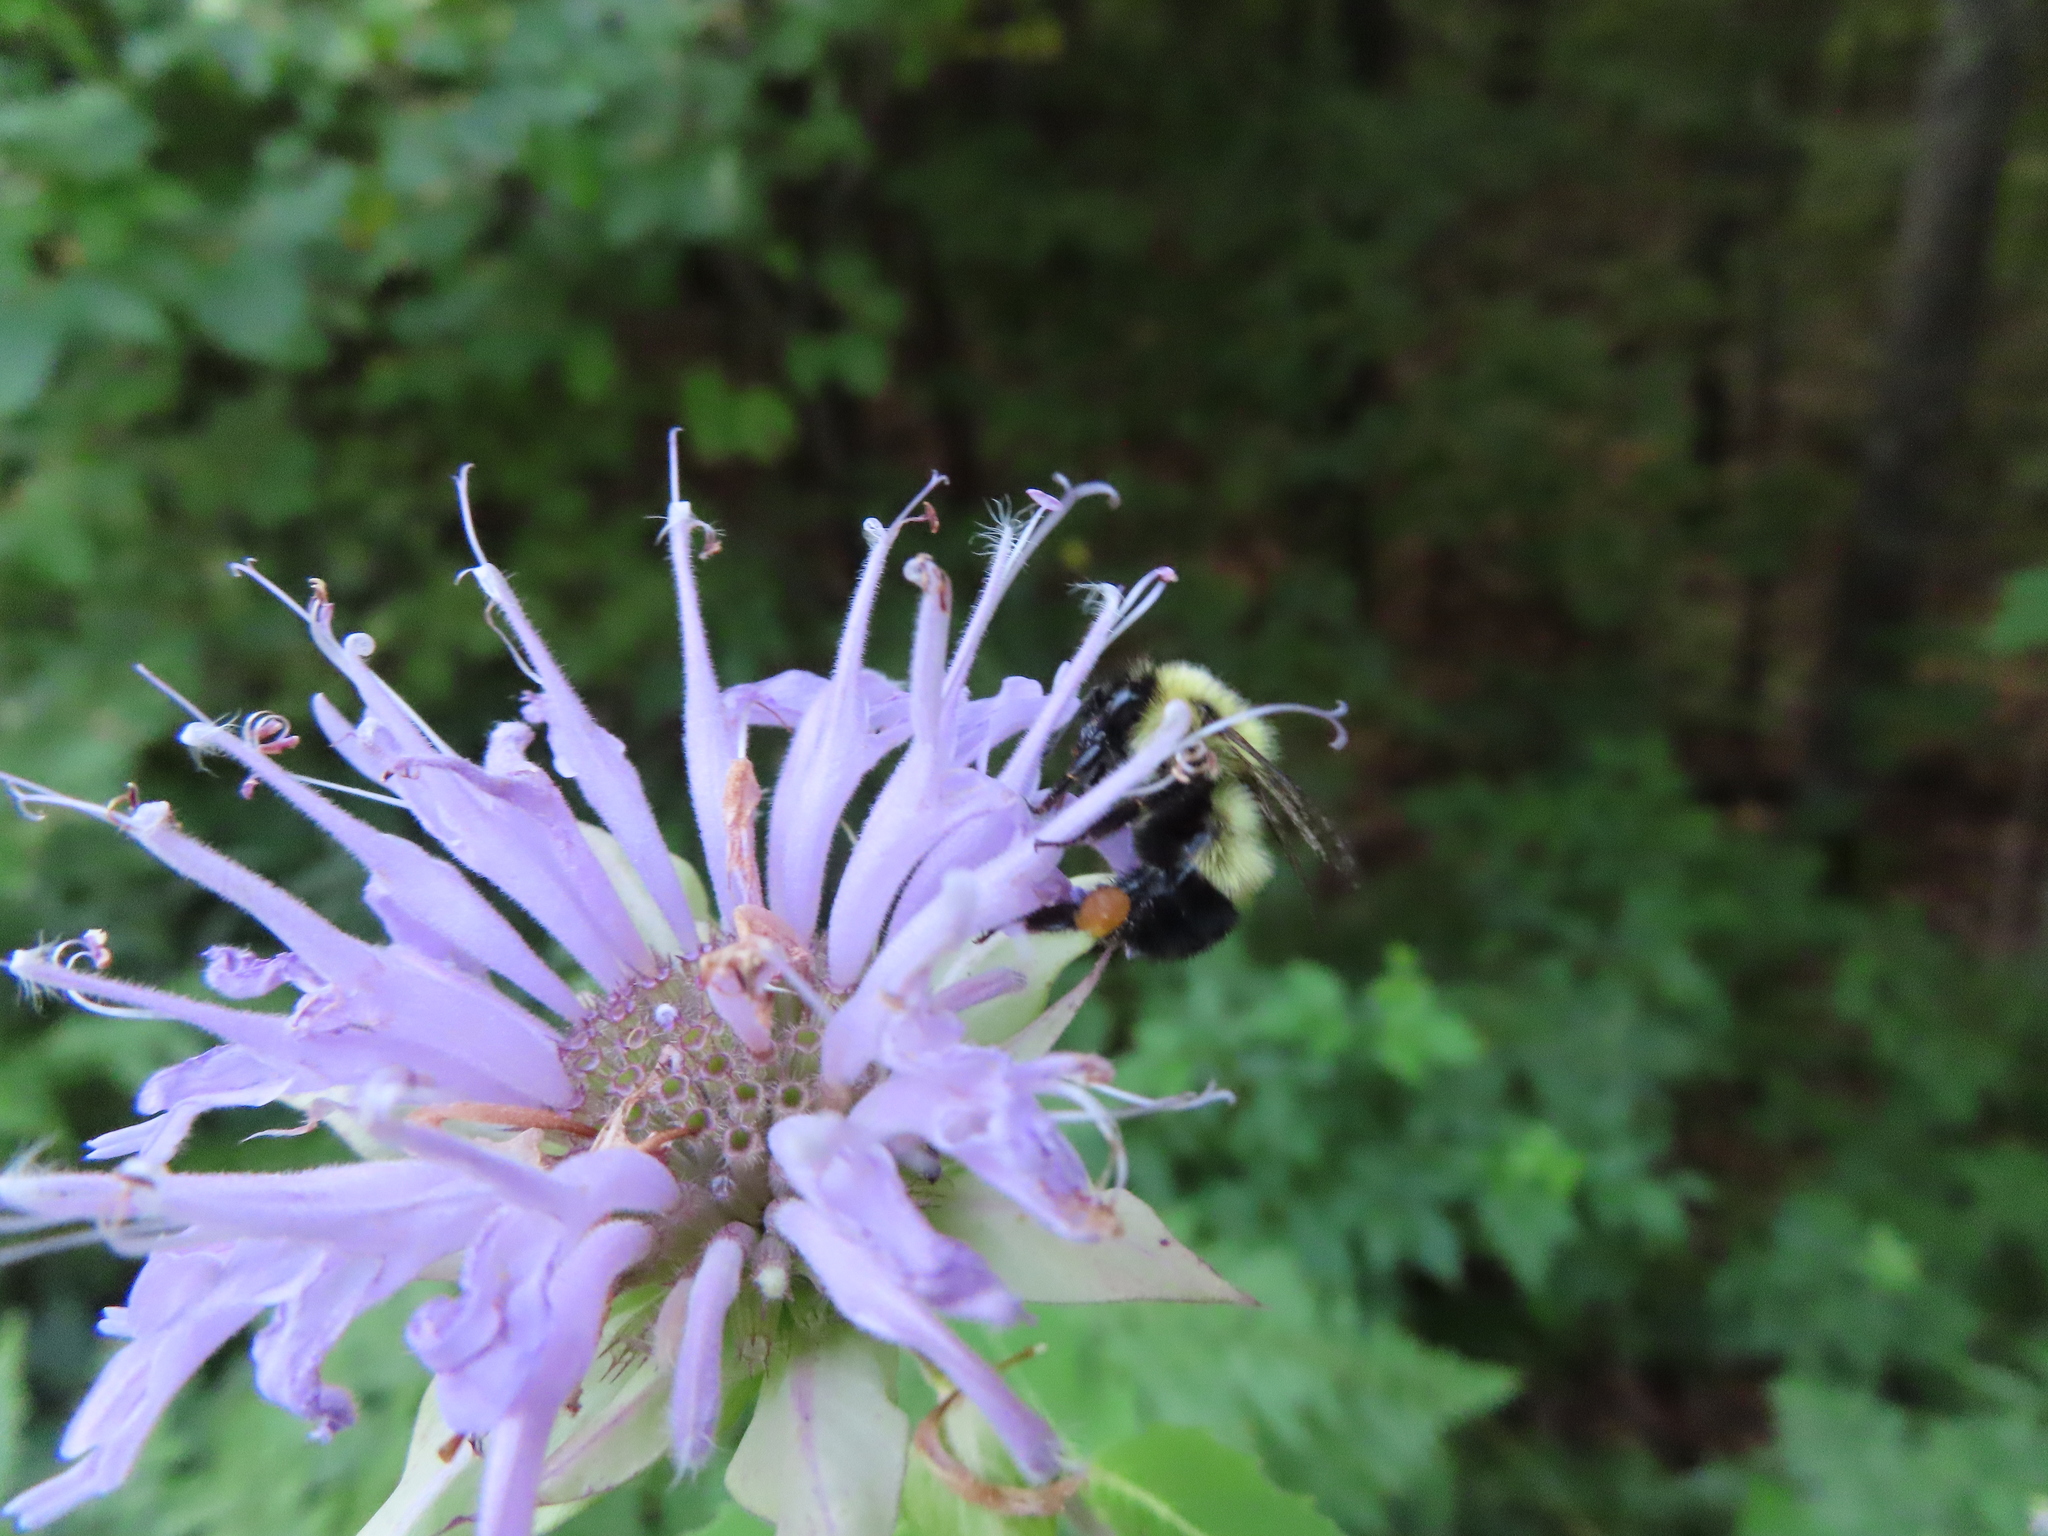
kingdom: Animalia
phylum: Arthropoda
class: Insecta
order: Hymenoptera
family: Apidae
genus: Bombus
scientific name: Bombus vagans
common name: Half-black bumble bee
